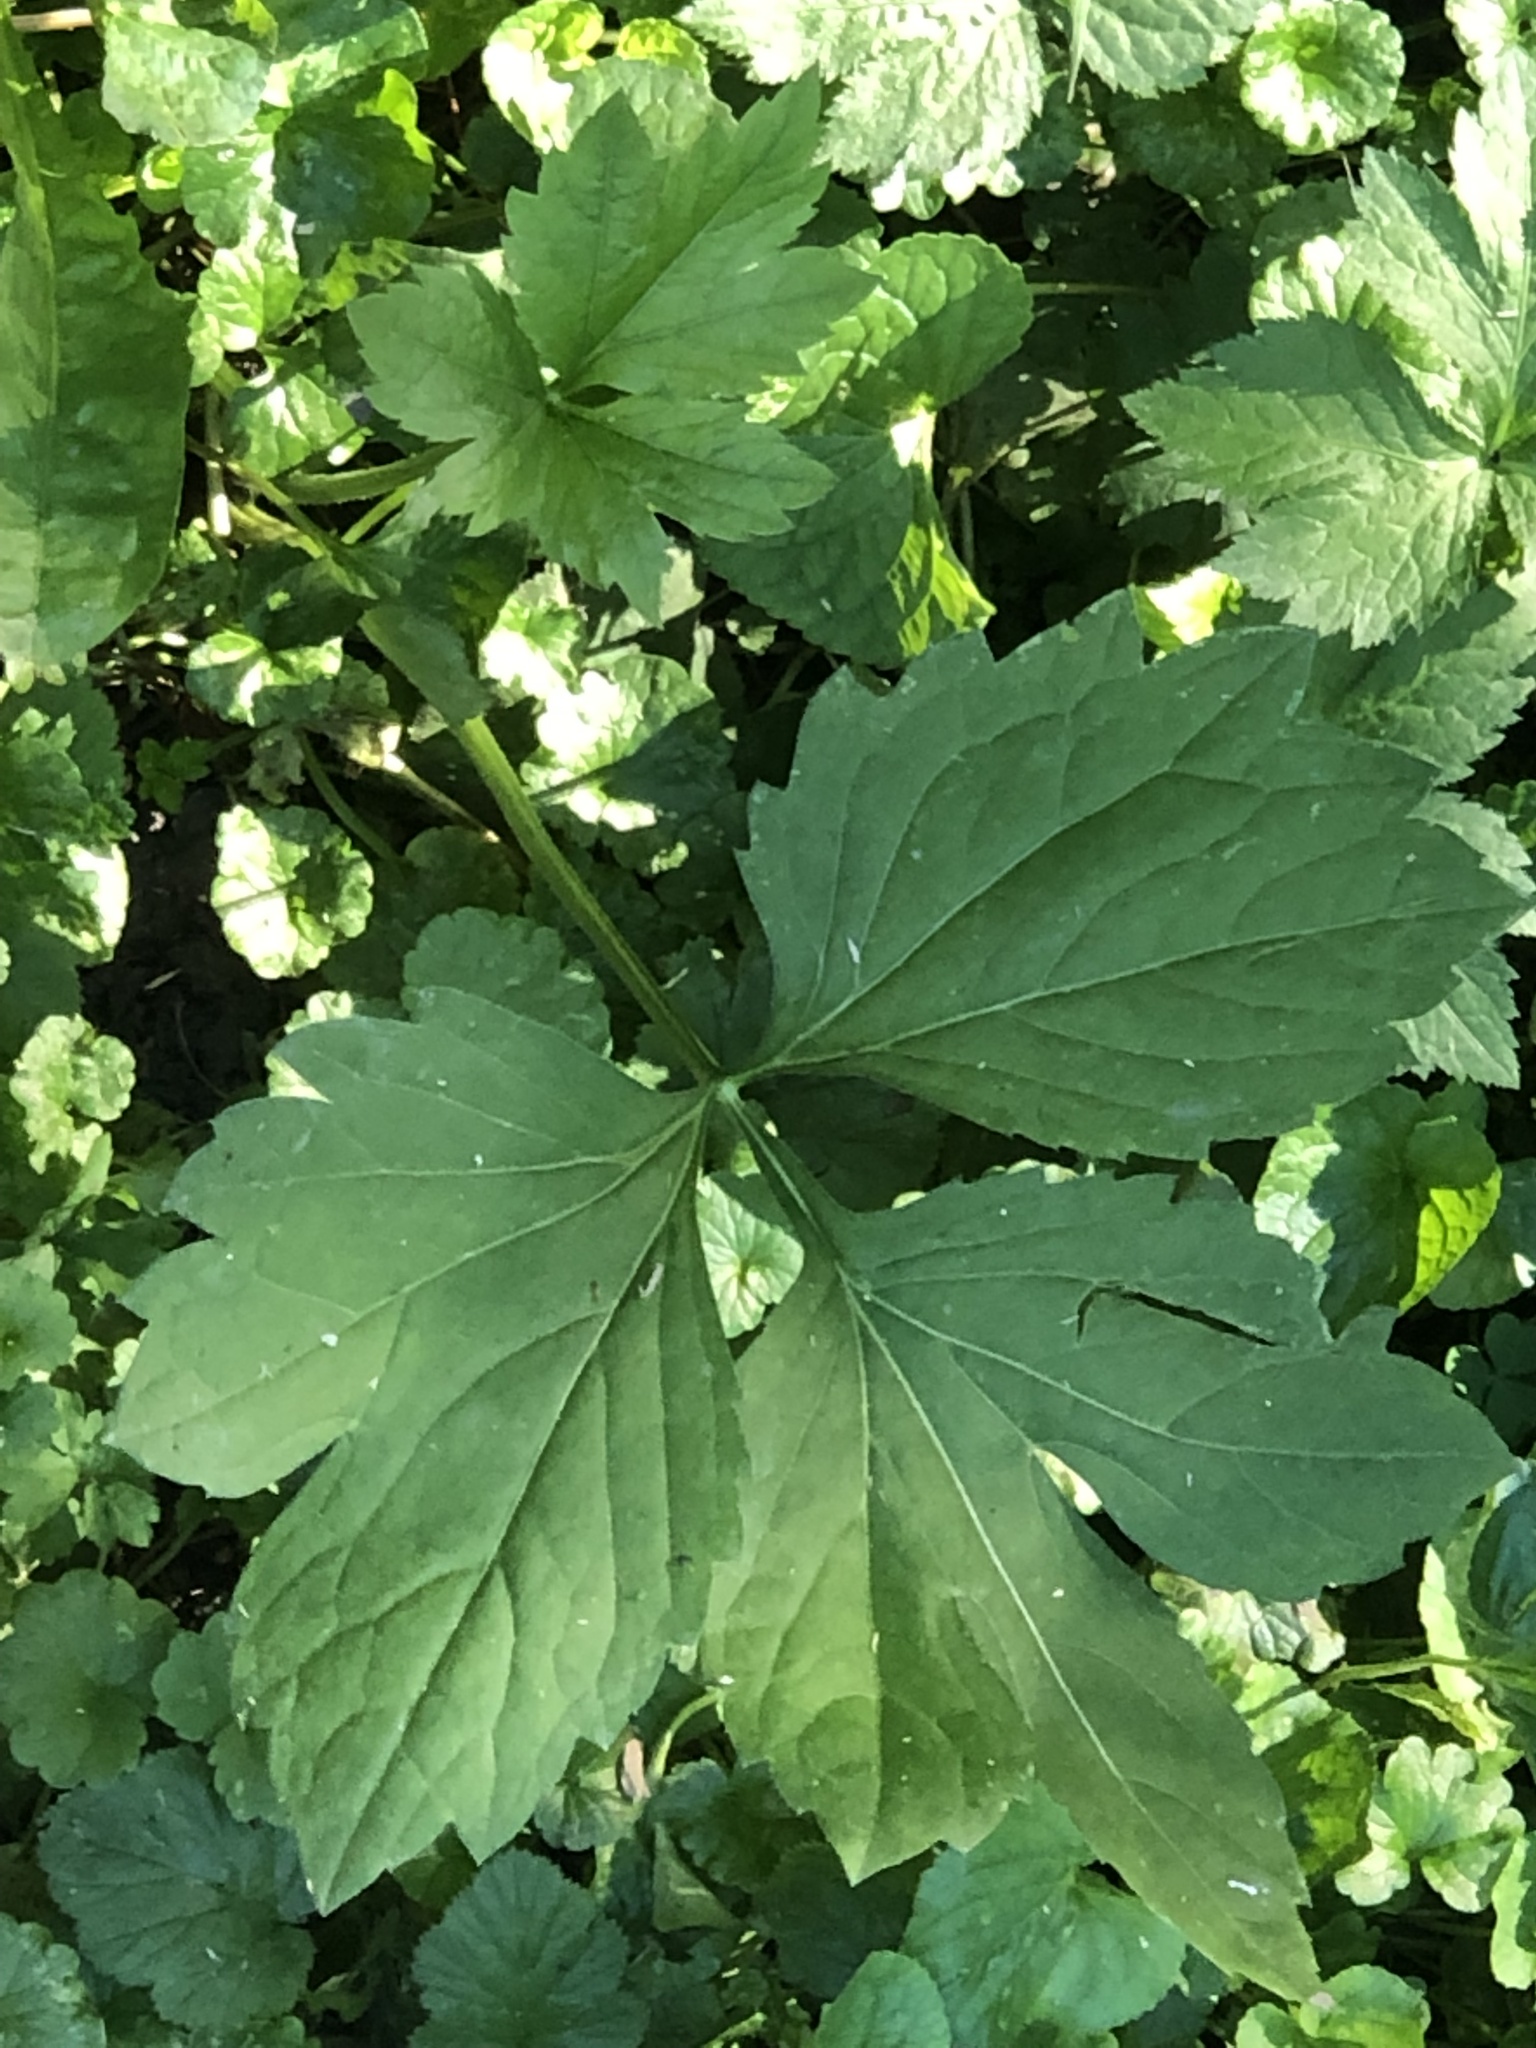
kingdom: Plantae
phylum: Tracheophyta
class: Magnoliopsida
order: Asterales
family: Asteraceae
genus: Rudbeckia
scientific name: Rudbeckia laciniata
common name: Coneflower
